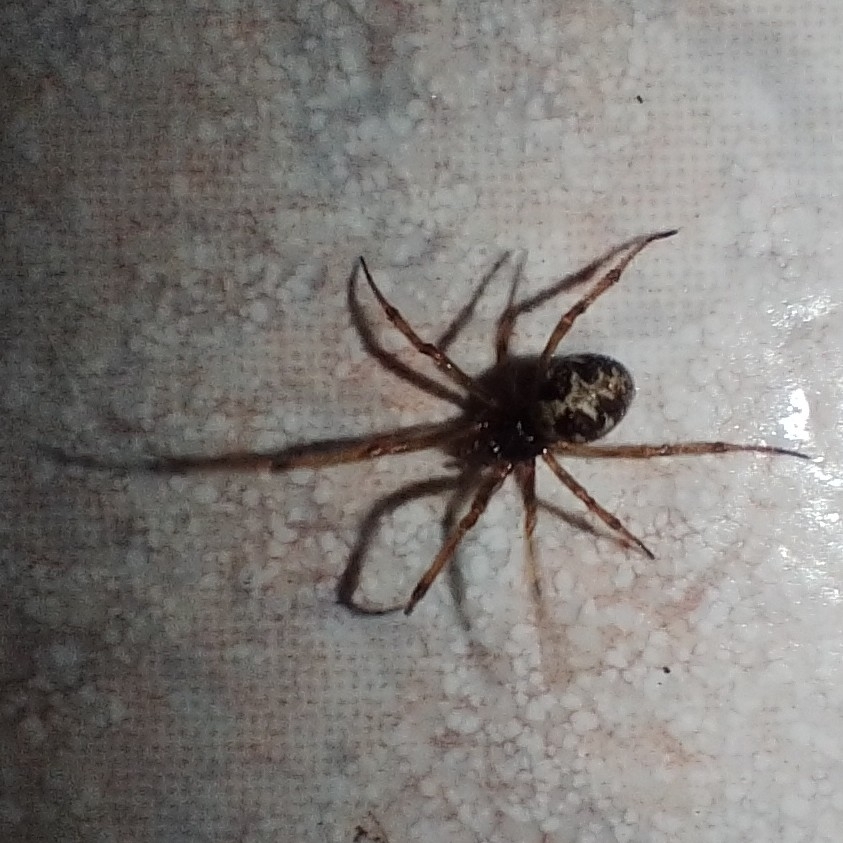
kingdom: Animalia
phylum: Arthropoda
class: Arachnida
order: Araneae
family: Theridiidae
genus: Steatoda
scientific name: Steatoda triangulosa
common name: Triangulate bud spider
